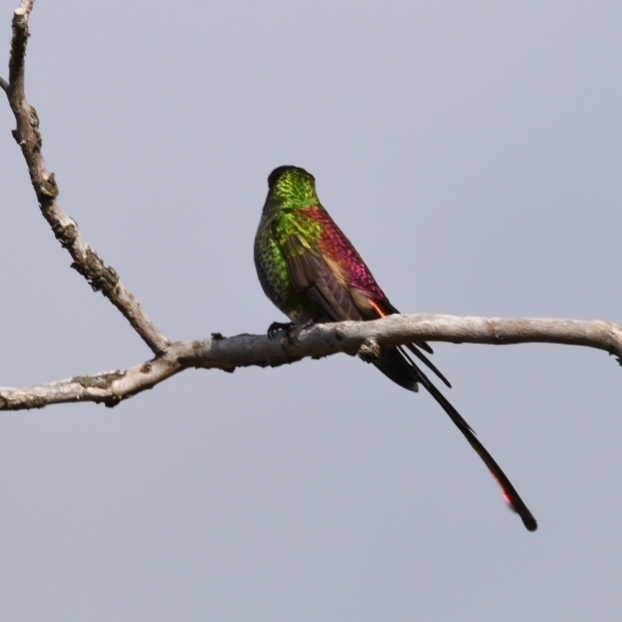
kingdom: Animalia
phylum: Chordata
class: Aves
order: Apodiformes
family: Trochilidae
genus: Sappho
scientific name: Sappho sparganurus
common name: Red-tailed comet
